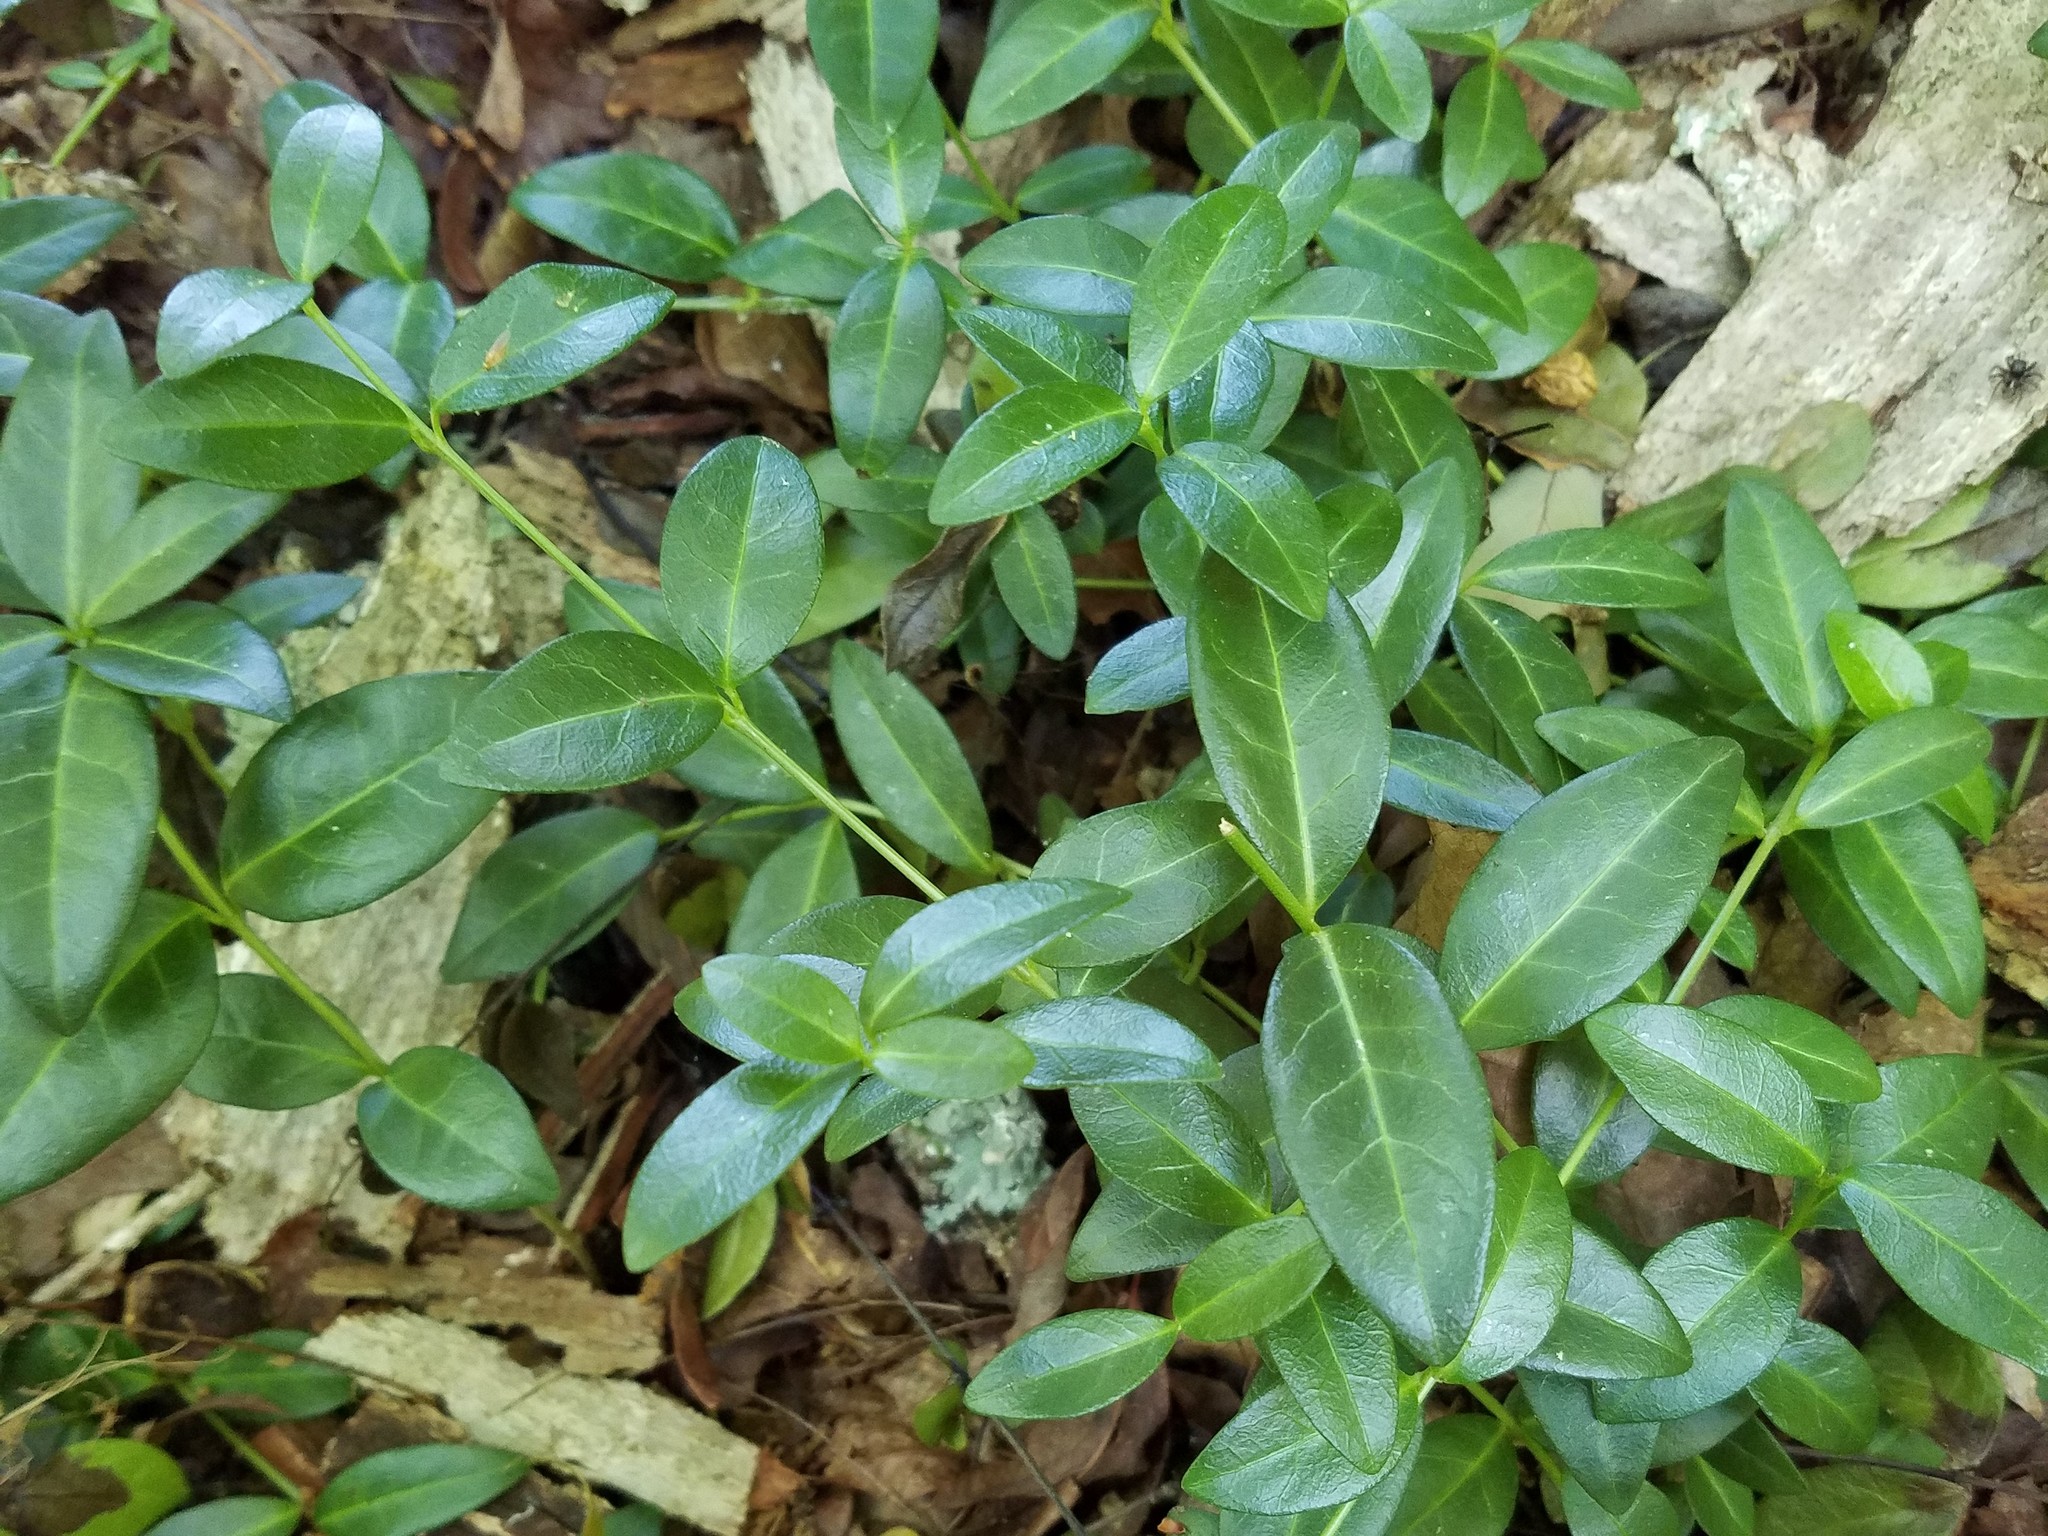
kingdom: Plantae
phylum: Tracheophyta
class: Magnoliopsida
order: Gentianales
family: Apocynaceae
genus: Vinca
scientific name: Vinca minor
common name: Lesser periwinkle
